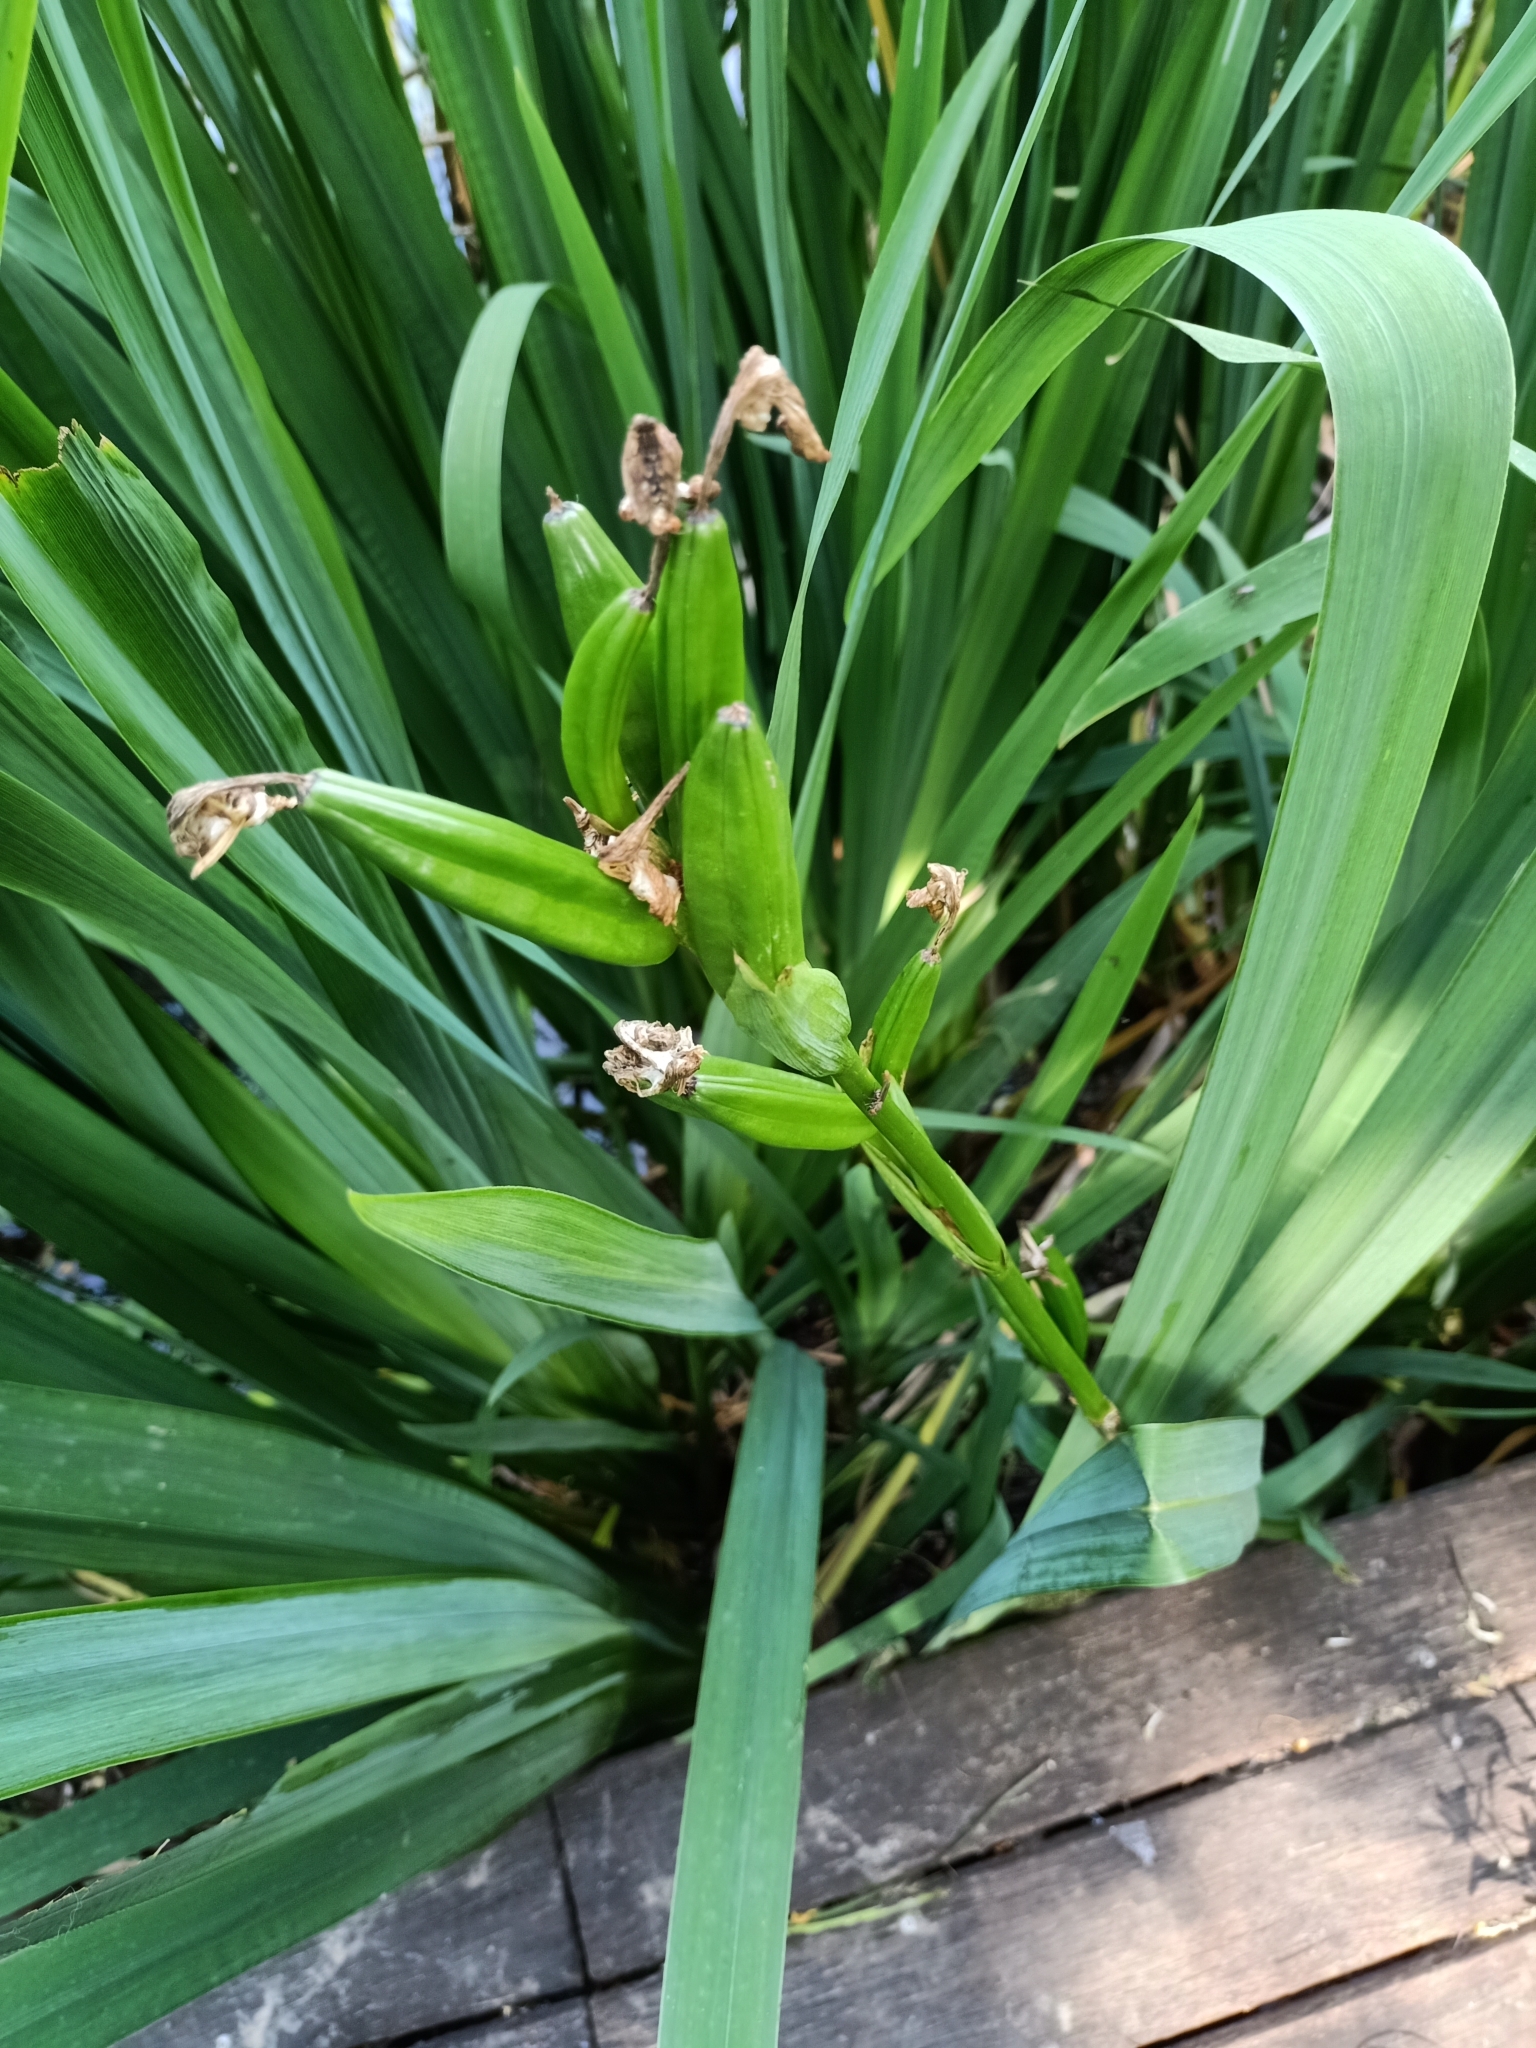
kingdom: Plantae
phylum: Tracheophyta
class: Liliopsida
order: Asparagales
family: Iridaceae
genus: Iris
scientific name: Iris pseudacorus
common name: Yellow flag
